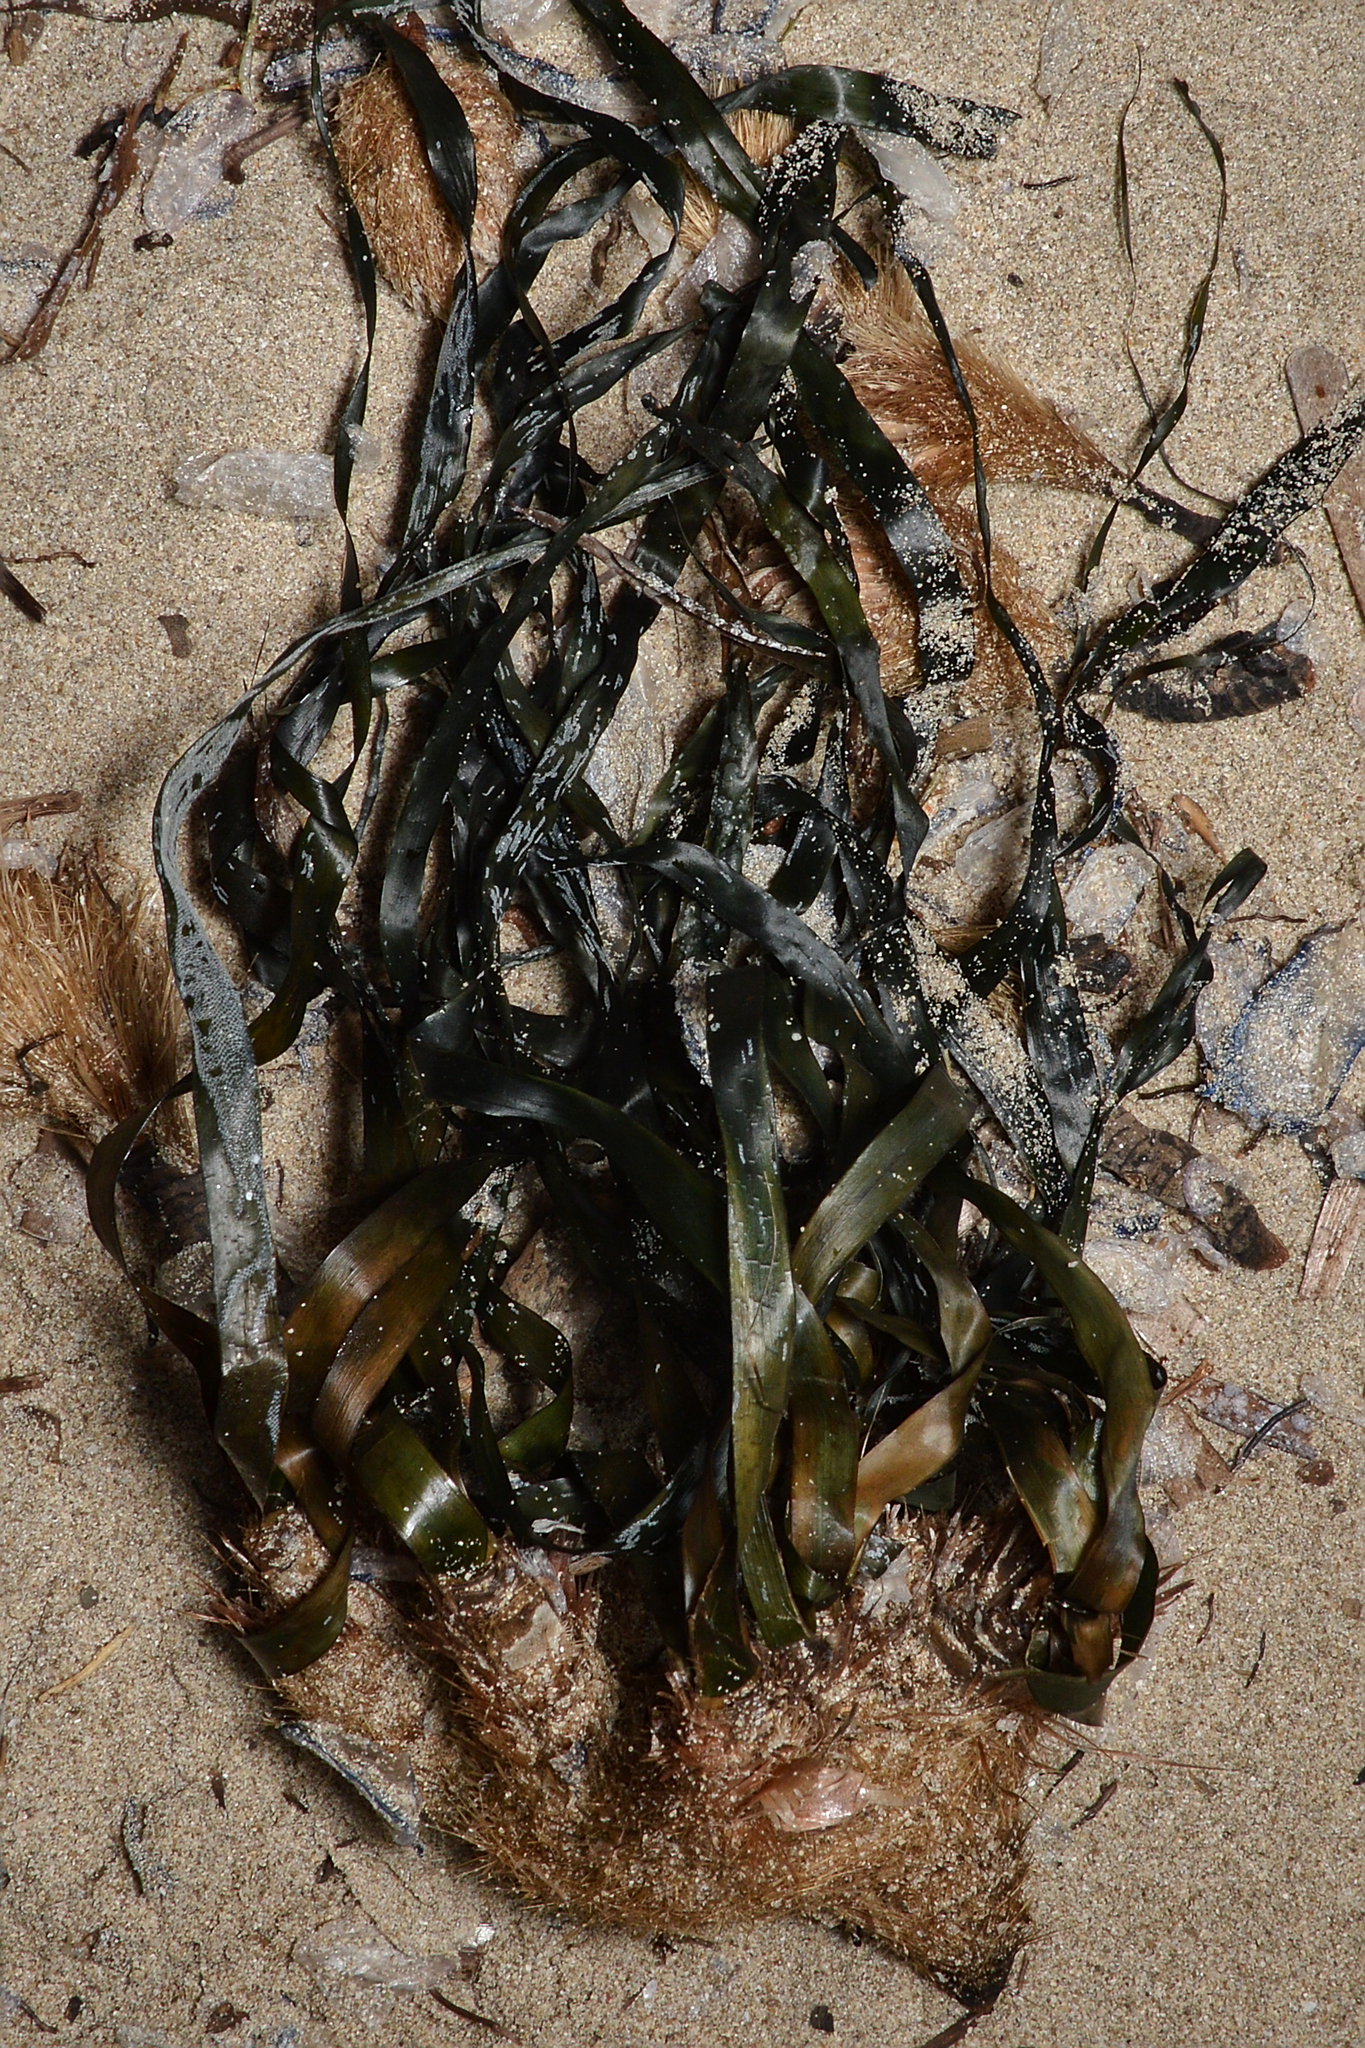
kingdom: Plantae
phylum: Tracheophyta
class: Liliopsida
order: Alismatales
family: Posidoniaceae
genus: Posidonia
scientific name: Posidonia oceanica
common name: Mediterranean tapeweed
